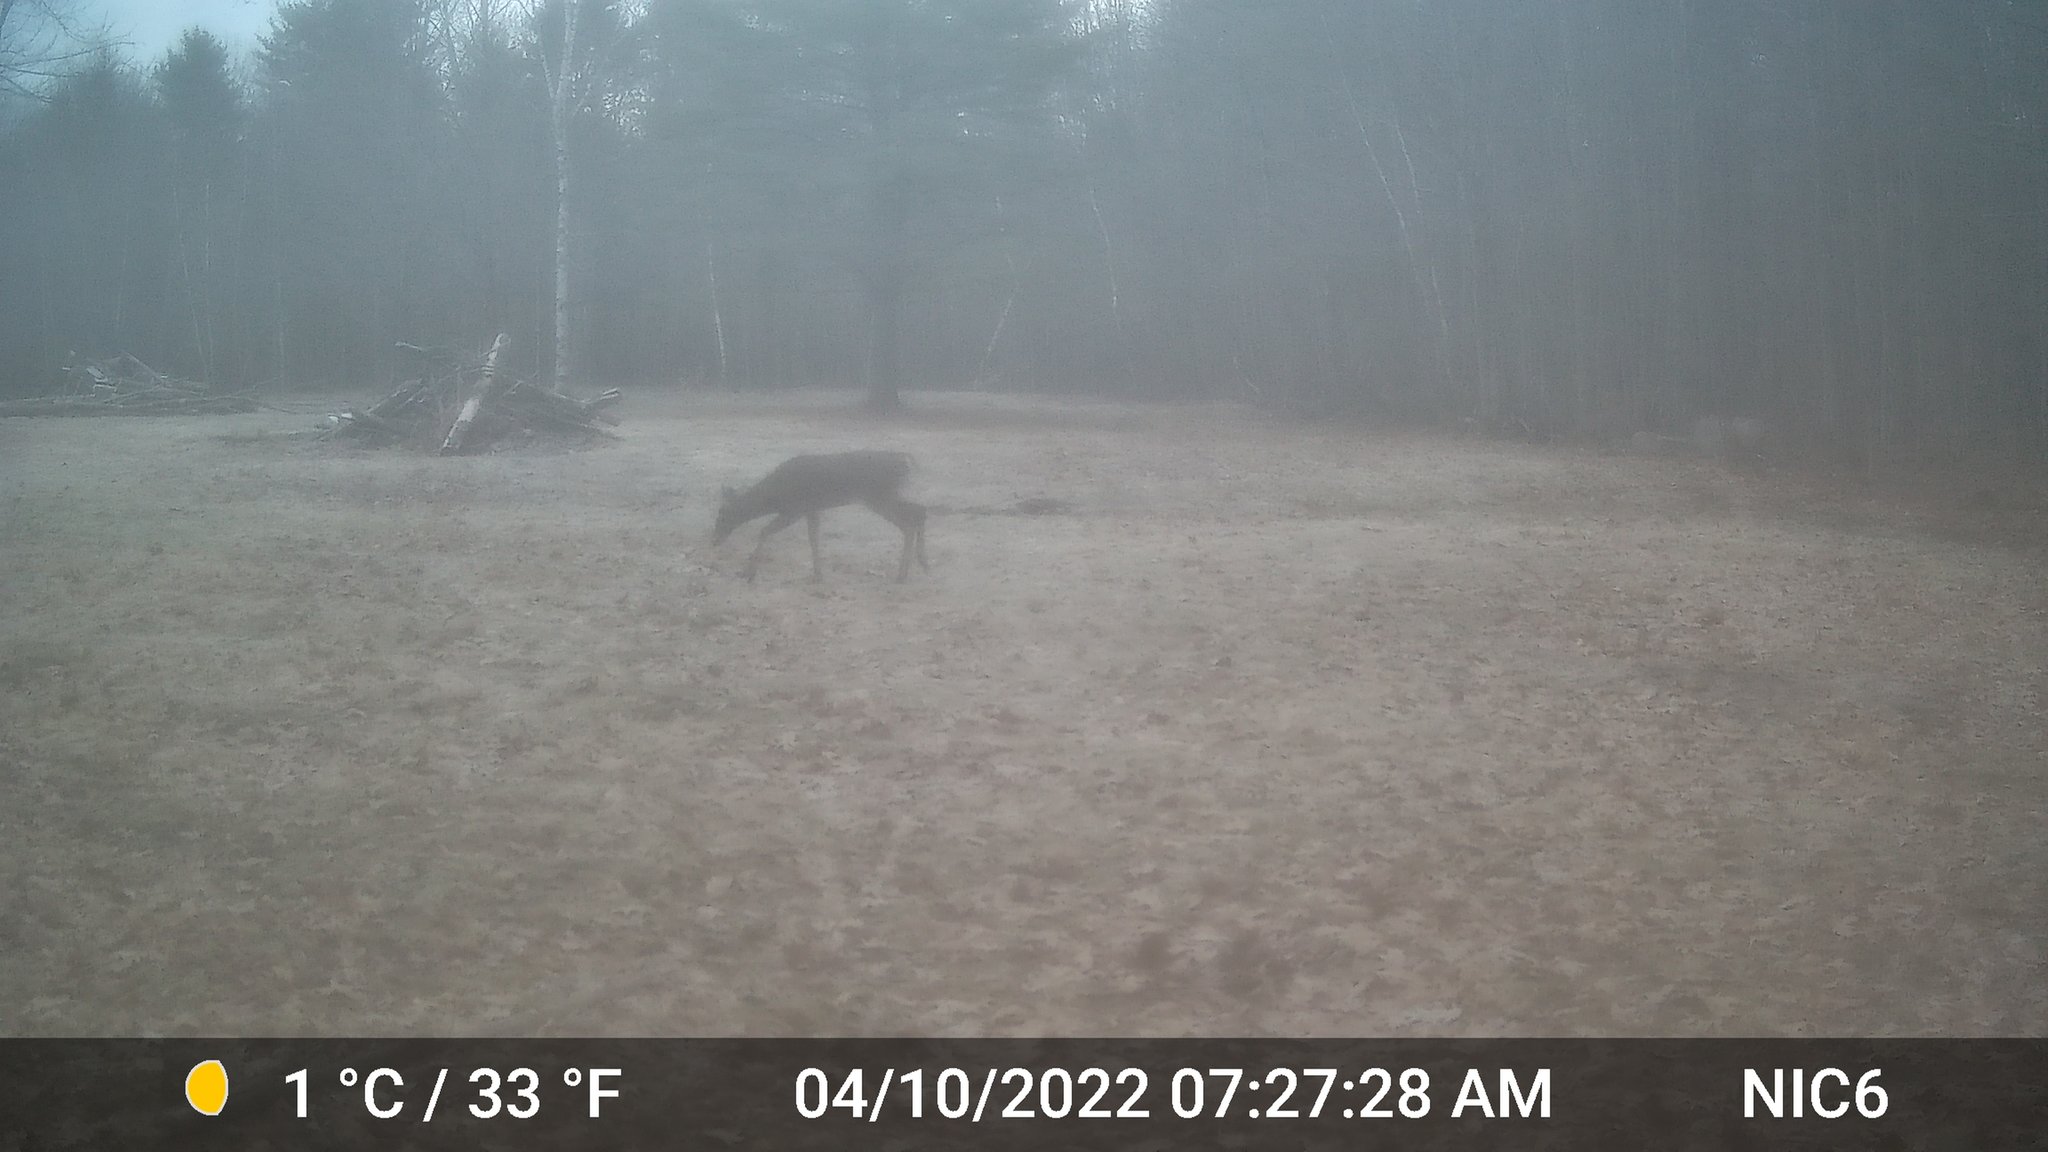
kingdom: Animalia
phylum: Chordata
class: Mammalia
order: Artiodactyla
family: Cervidae
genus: Odocoileus
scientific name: Odocoileus virginianus
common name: White-tailed deer
